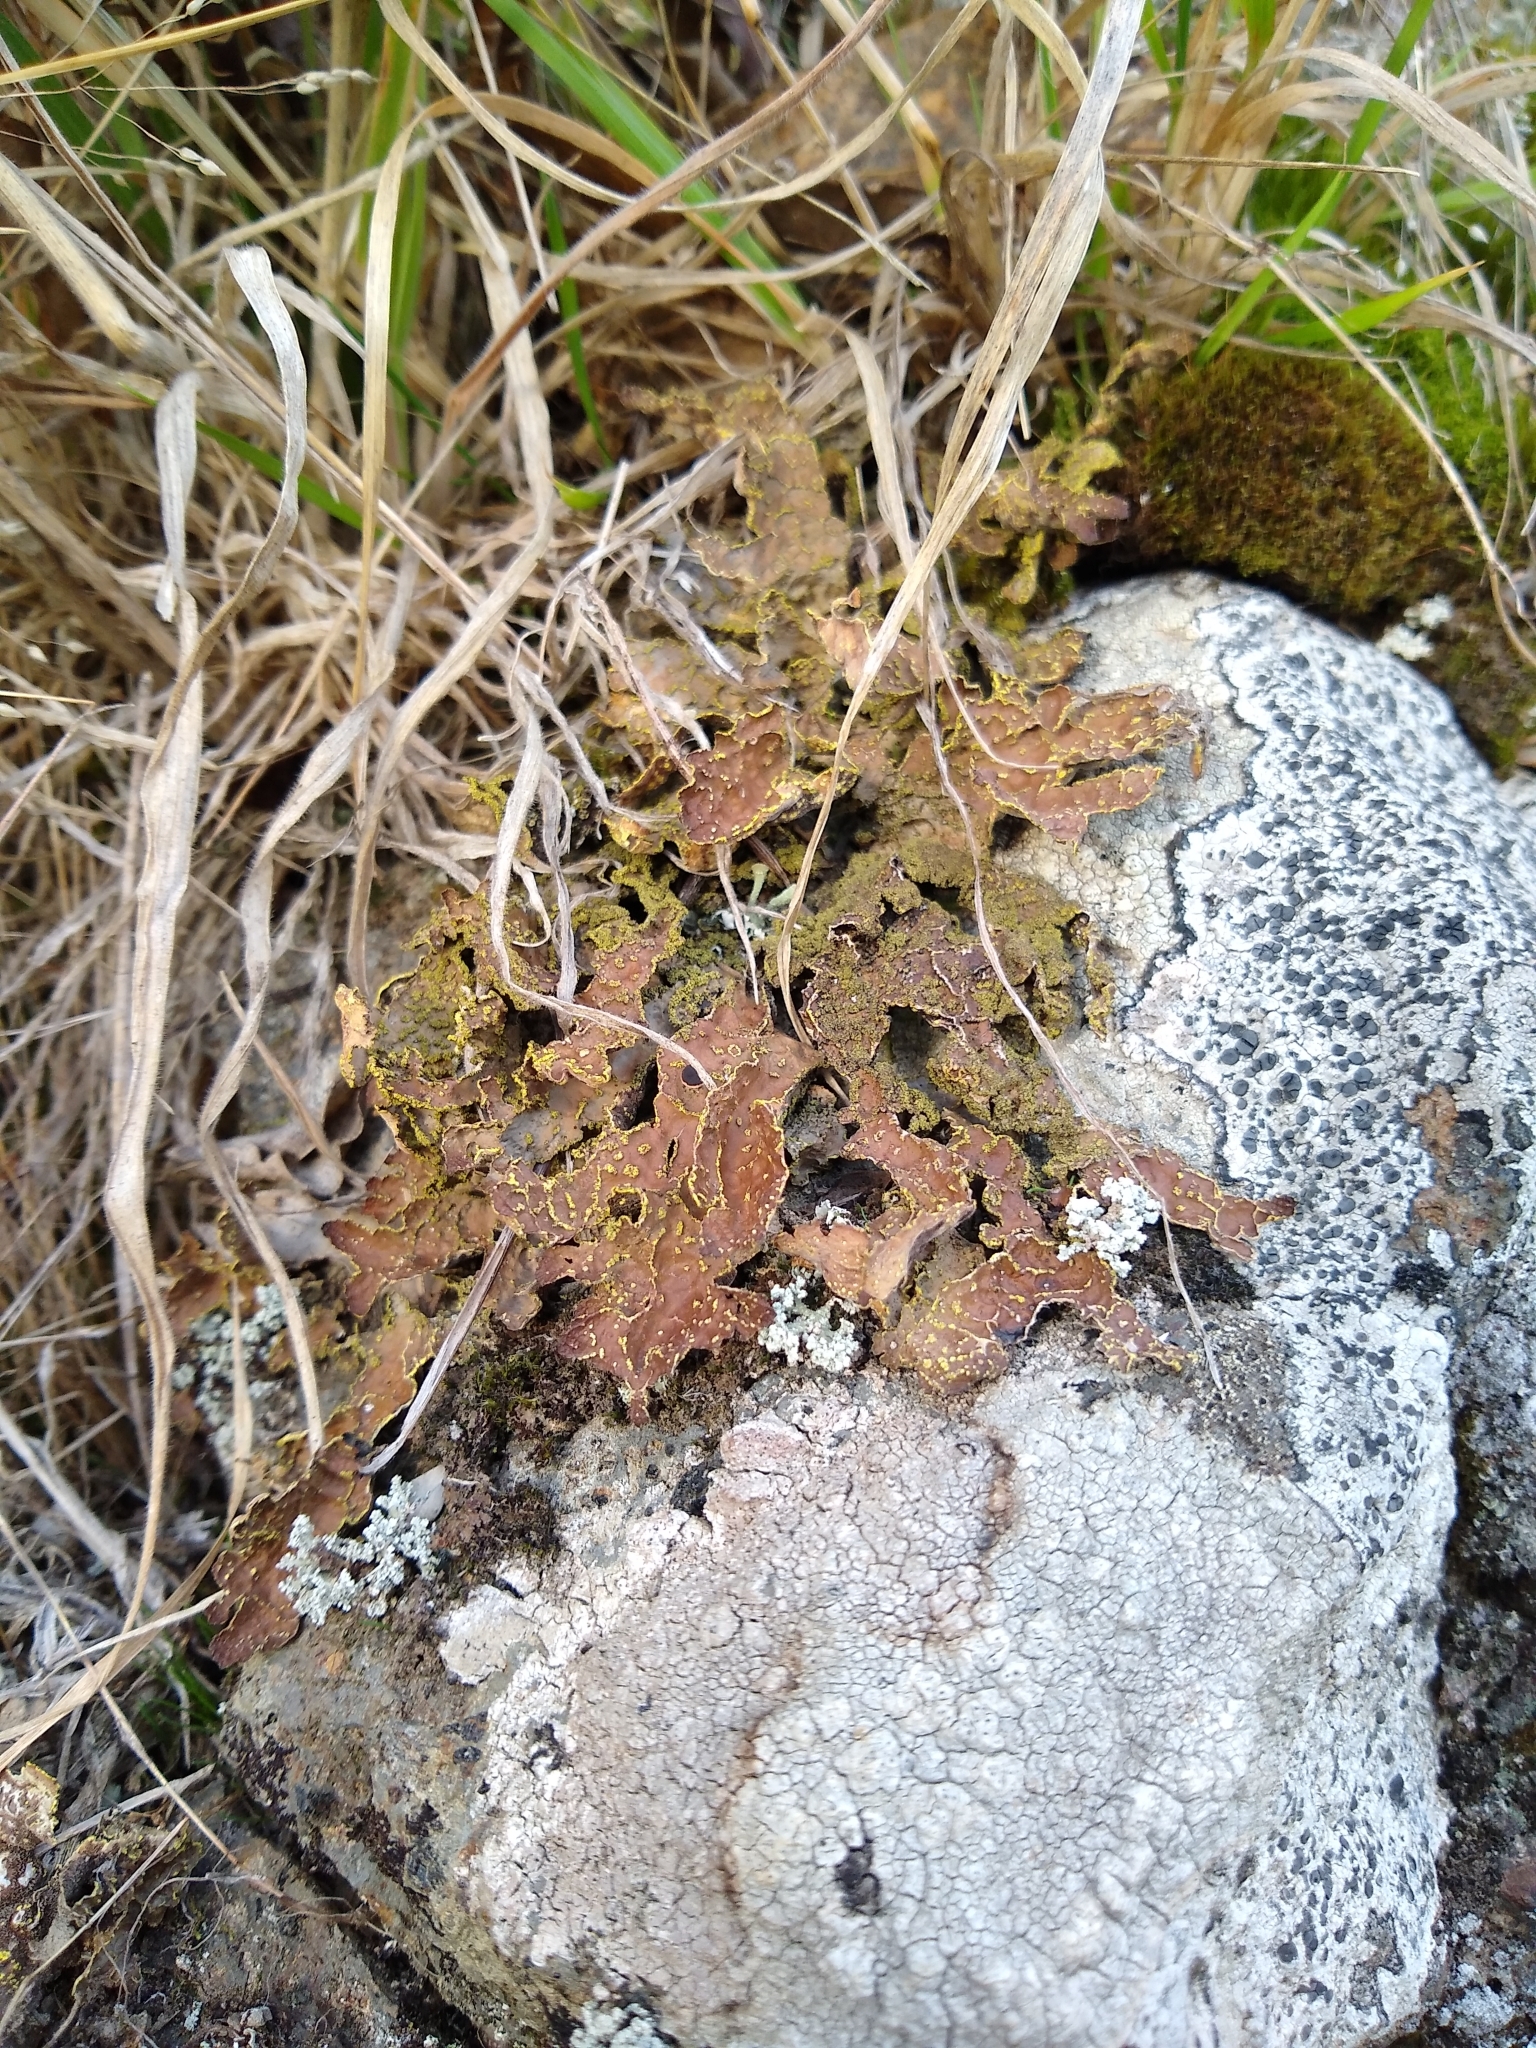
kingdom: Fungi
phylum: Ascomycota
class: Lecanoromycetes
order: Peltigerales
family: Lobariaceae
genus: Pseudocyphellaria
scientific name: Pseudocyphellaria crocata
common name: Golden specklebelly
